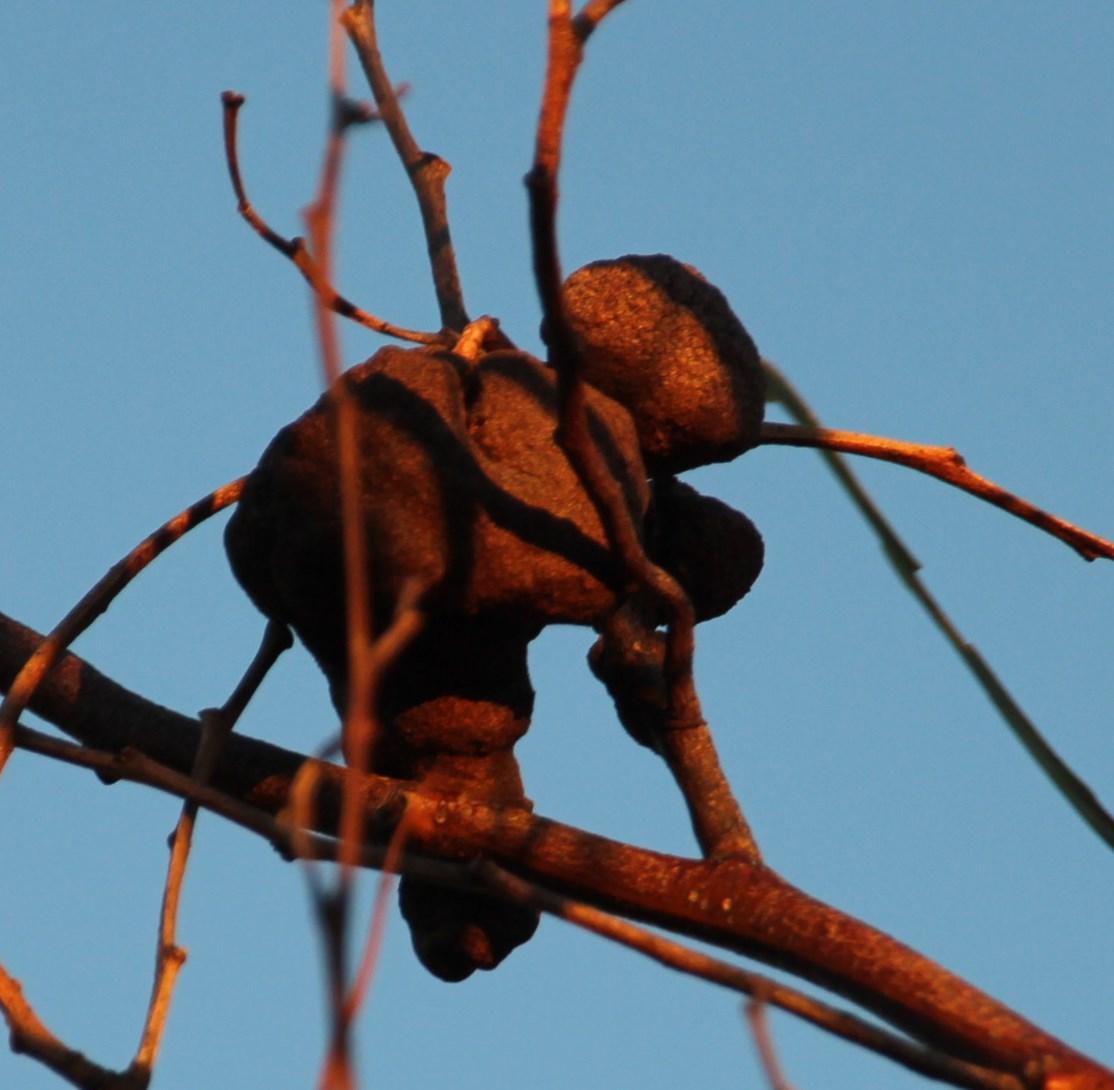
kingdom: Fungi
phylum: Basidiomycota
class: Pucciniomycetes
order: Pucciniales
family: Uromycladiaceae
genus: Uromycladium
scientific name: Uromycladium morrisii
